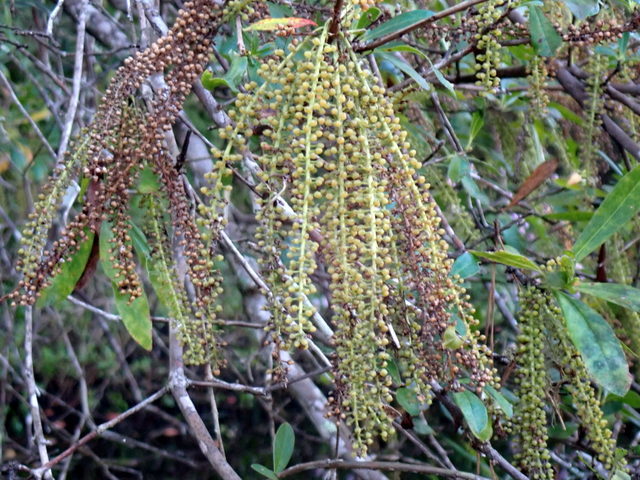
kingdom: Plantae
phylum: Tracheophyta
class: Magnoliopsida
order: Ericales
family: Cyrillaceae
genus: Cyrilla
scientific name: Cyrilla racemiflora
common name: Black titi
